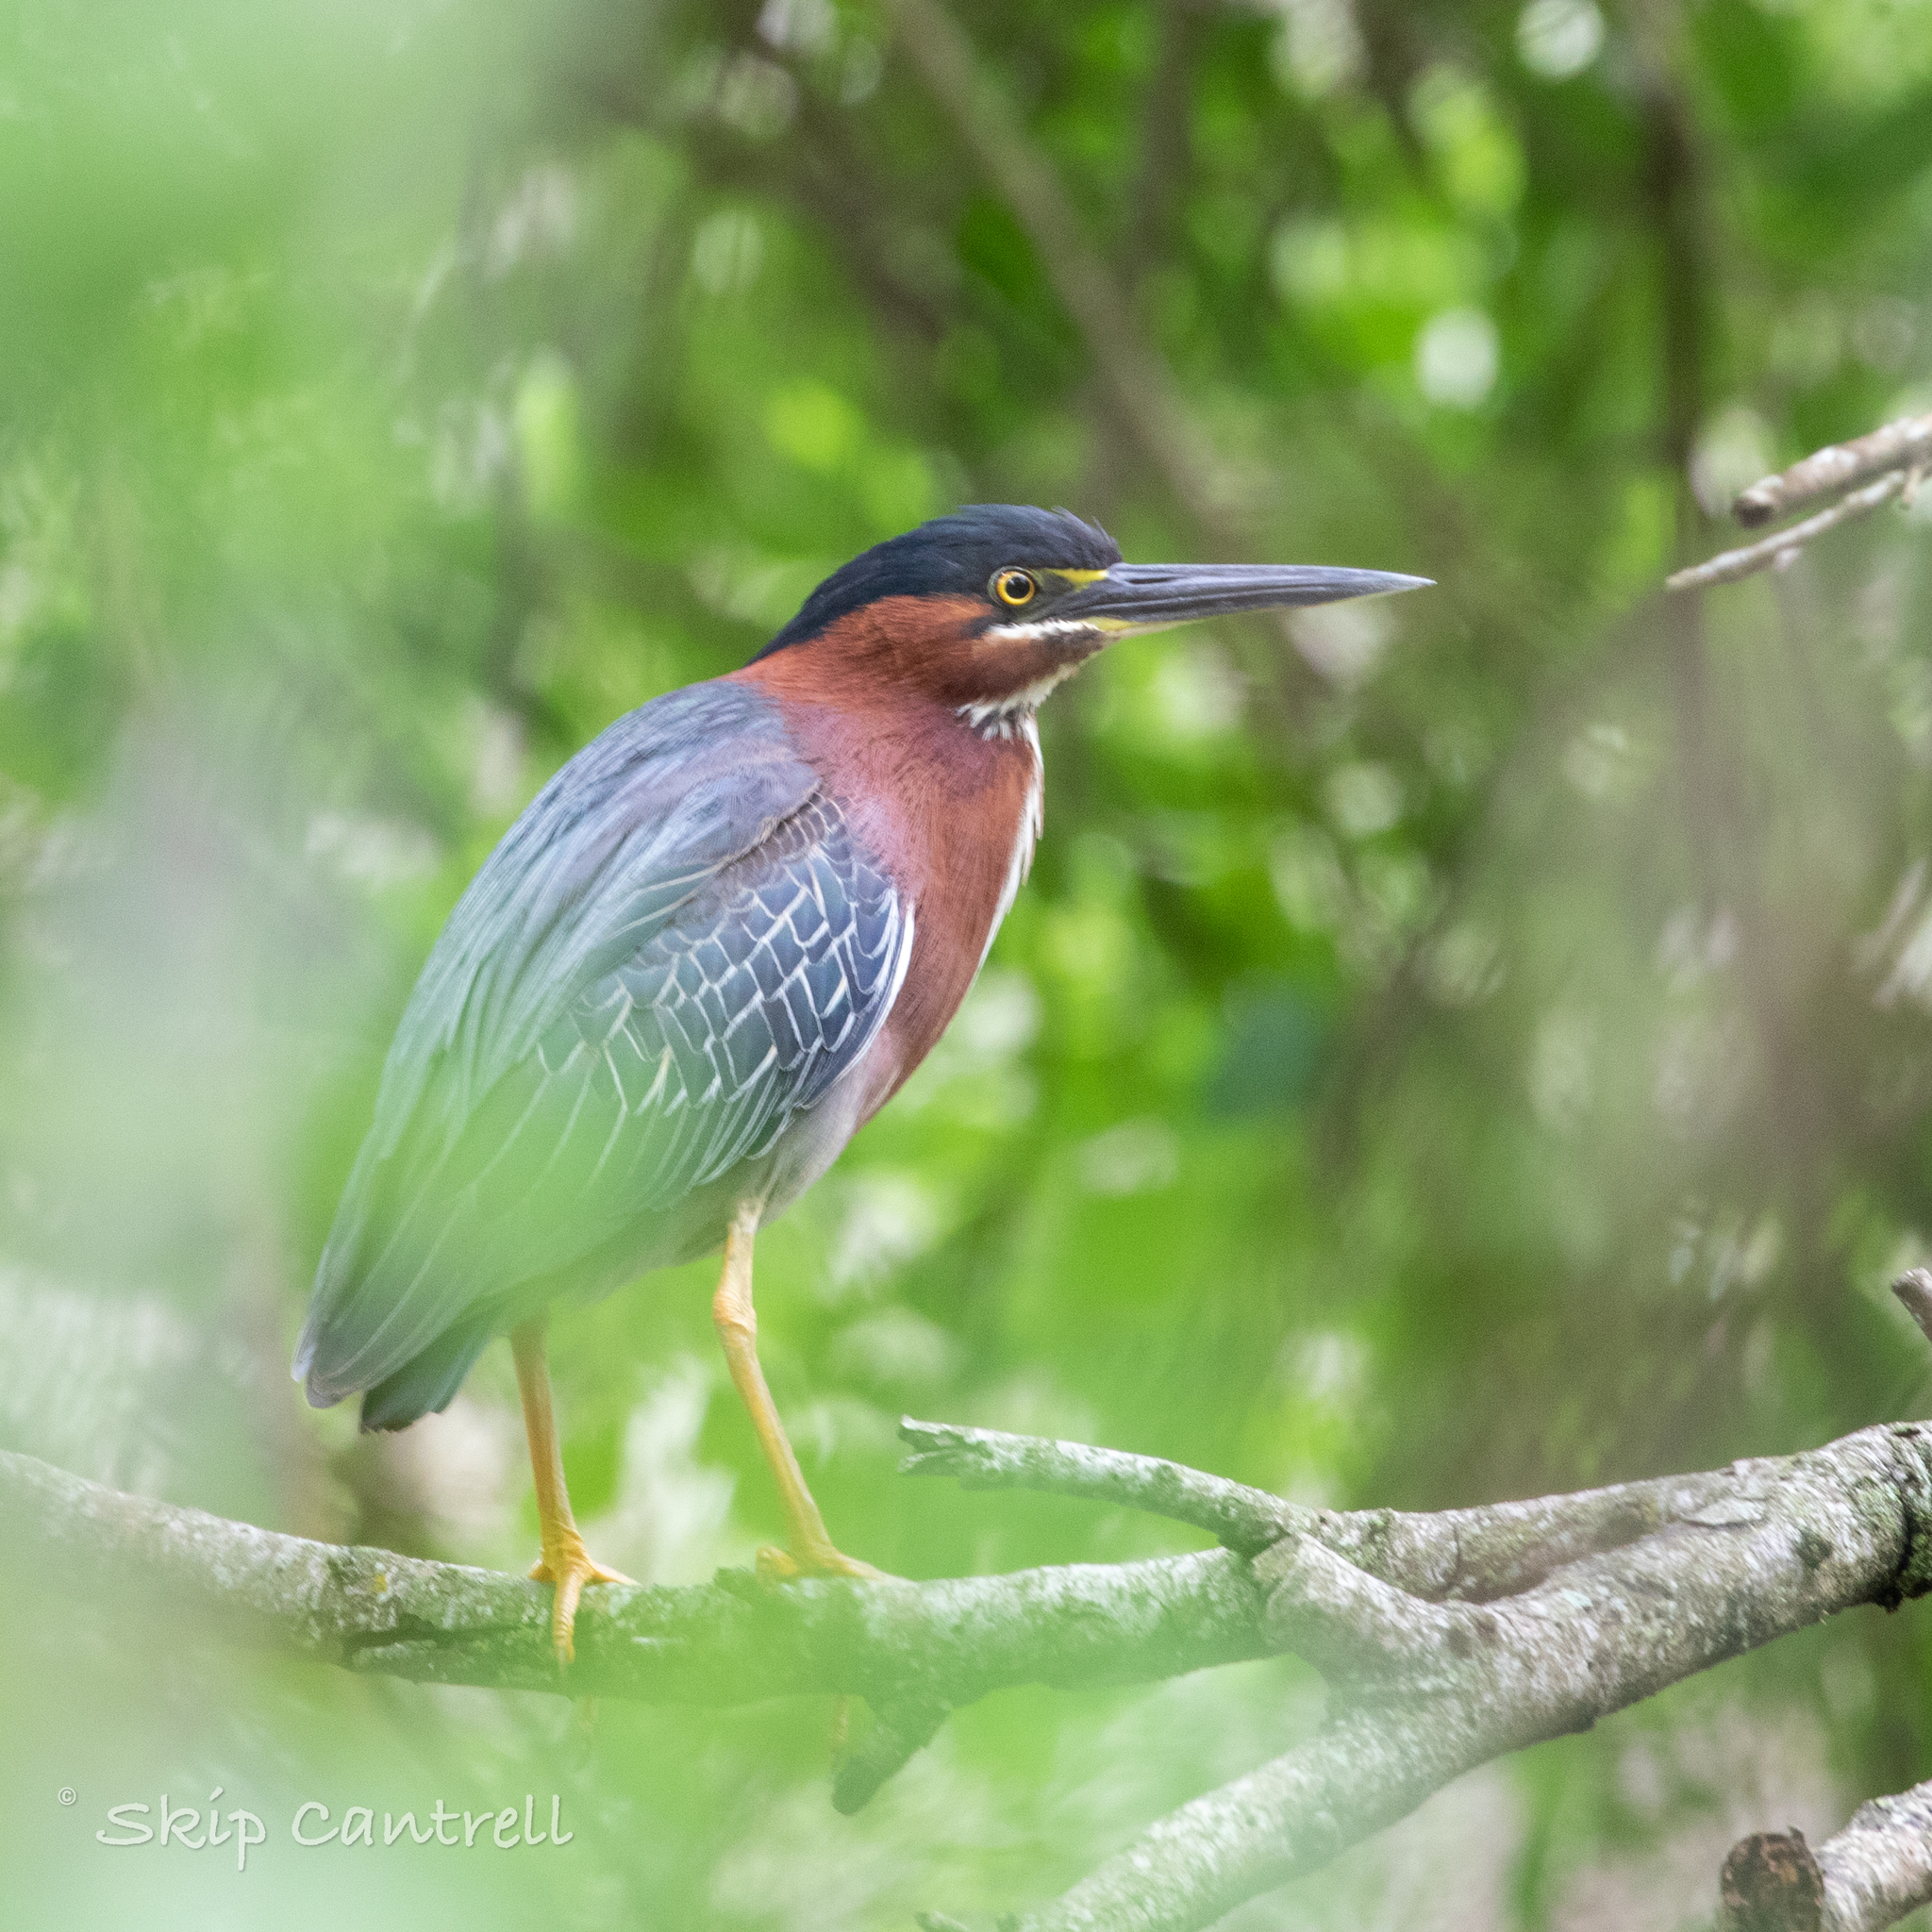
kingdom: Animalia
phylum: Chordata
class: Aves
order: Pelecaniformes
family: Ardeidae
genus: Butorides
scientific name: Butorides virescens
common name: Green heron
